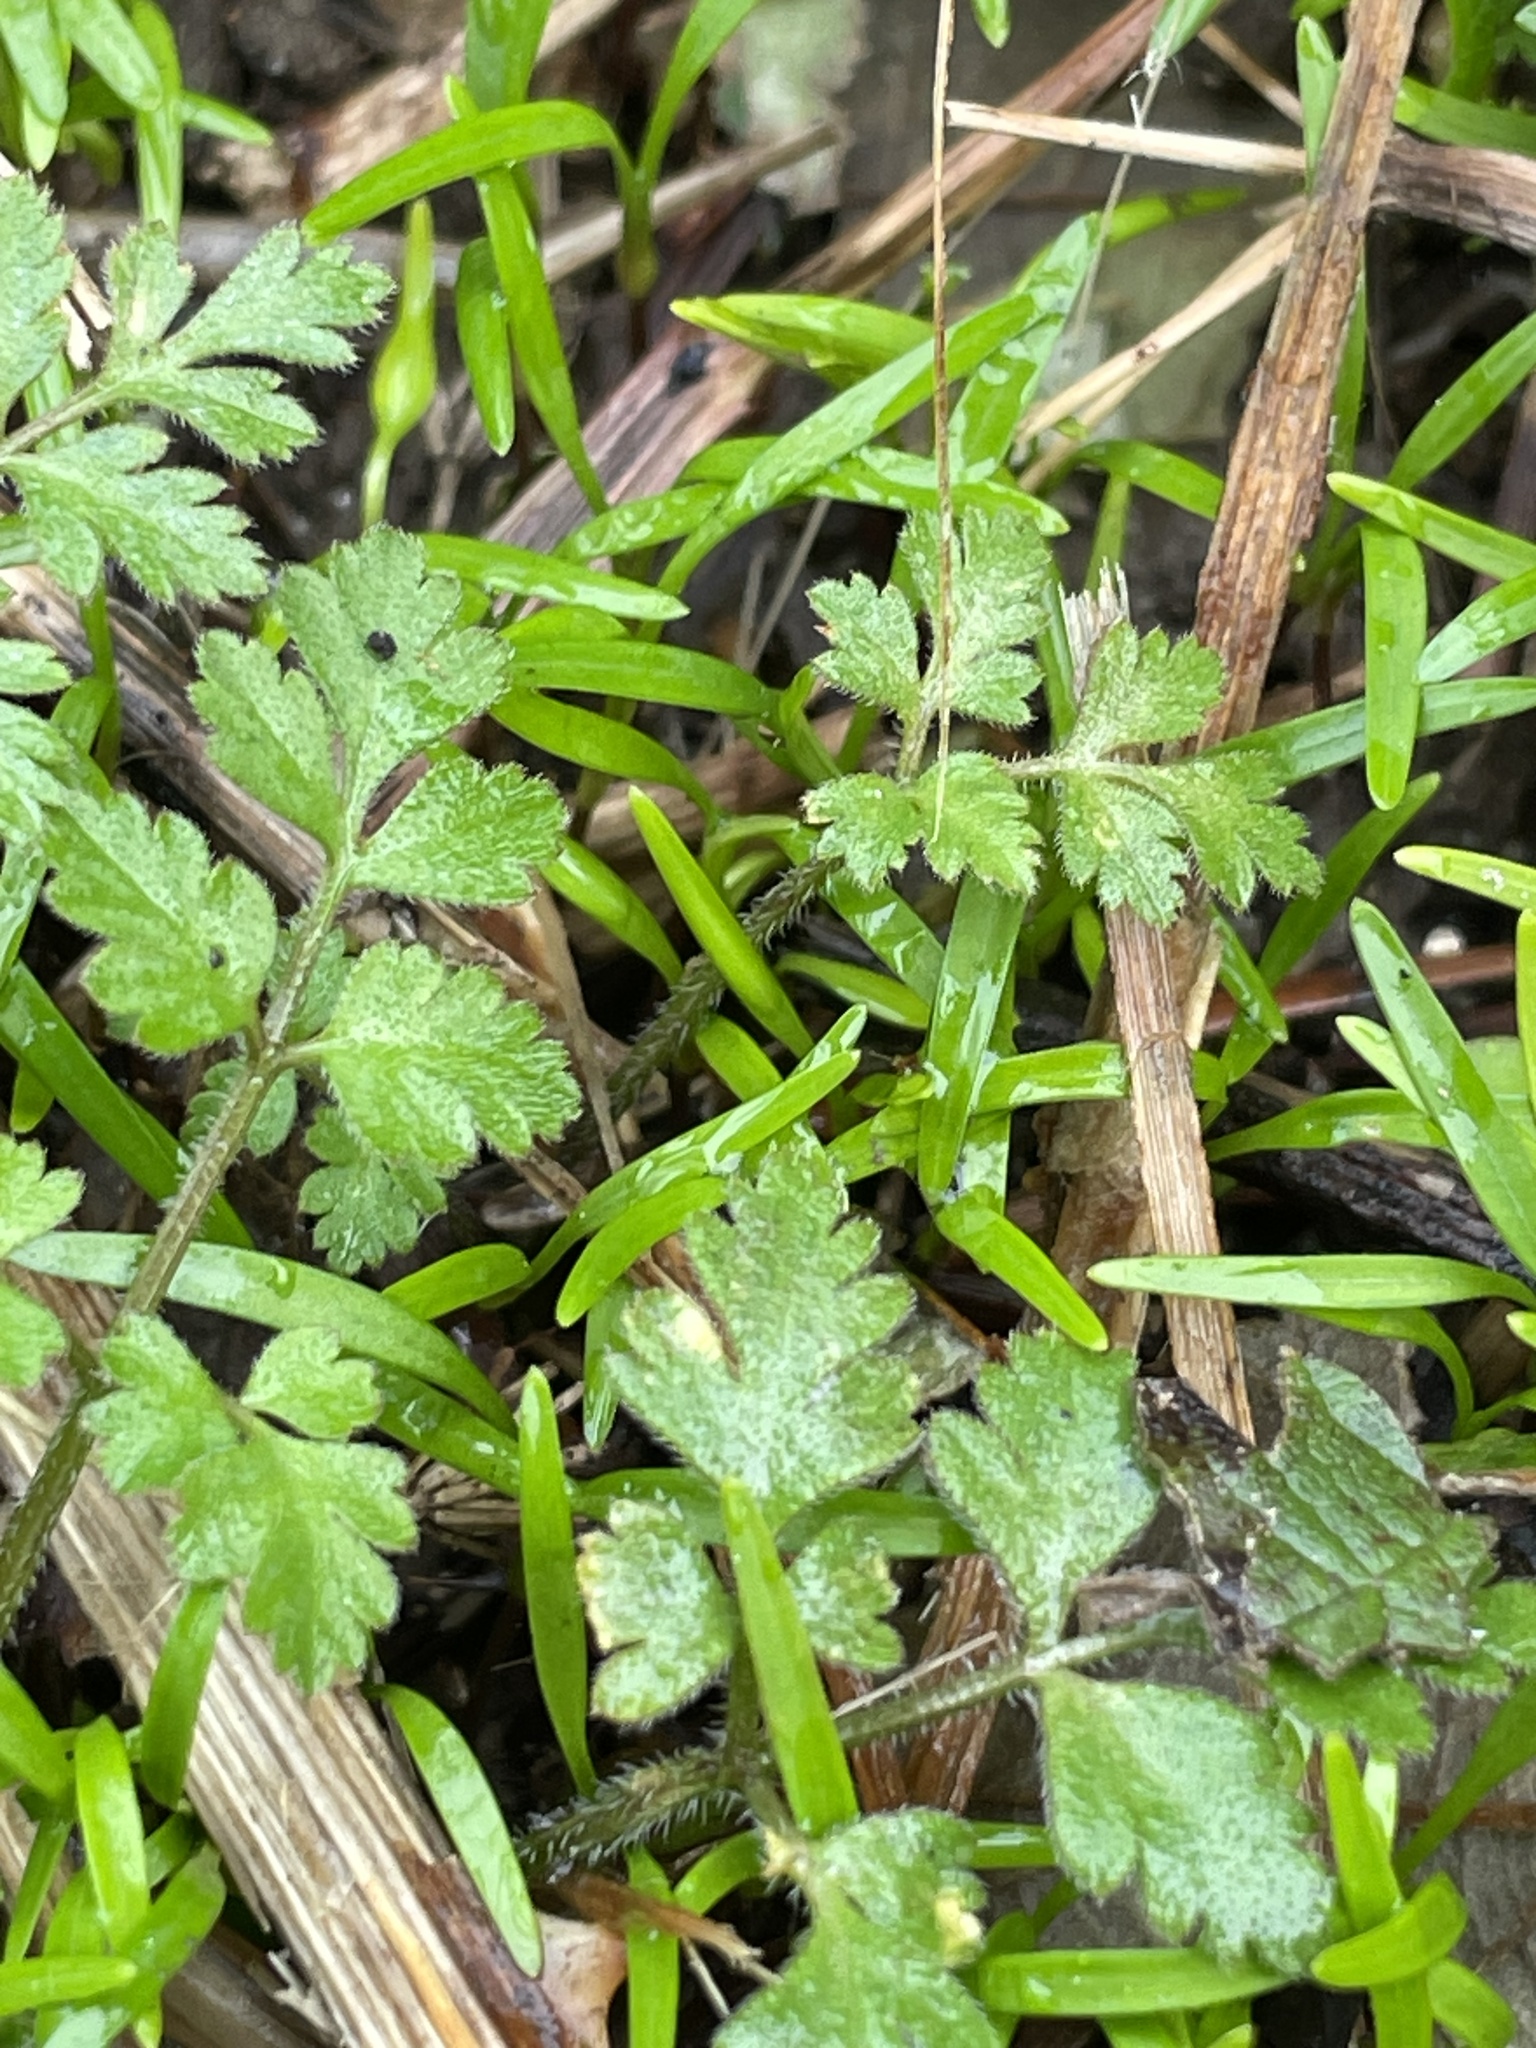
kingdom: Plantae
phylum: Tracheophyta
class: Magnoliopsida
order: Apiales
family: Apiaceae
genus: Chaerophyllum
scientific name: Chaerophyllum temulum
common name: Rough chervil
